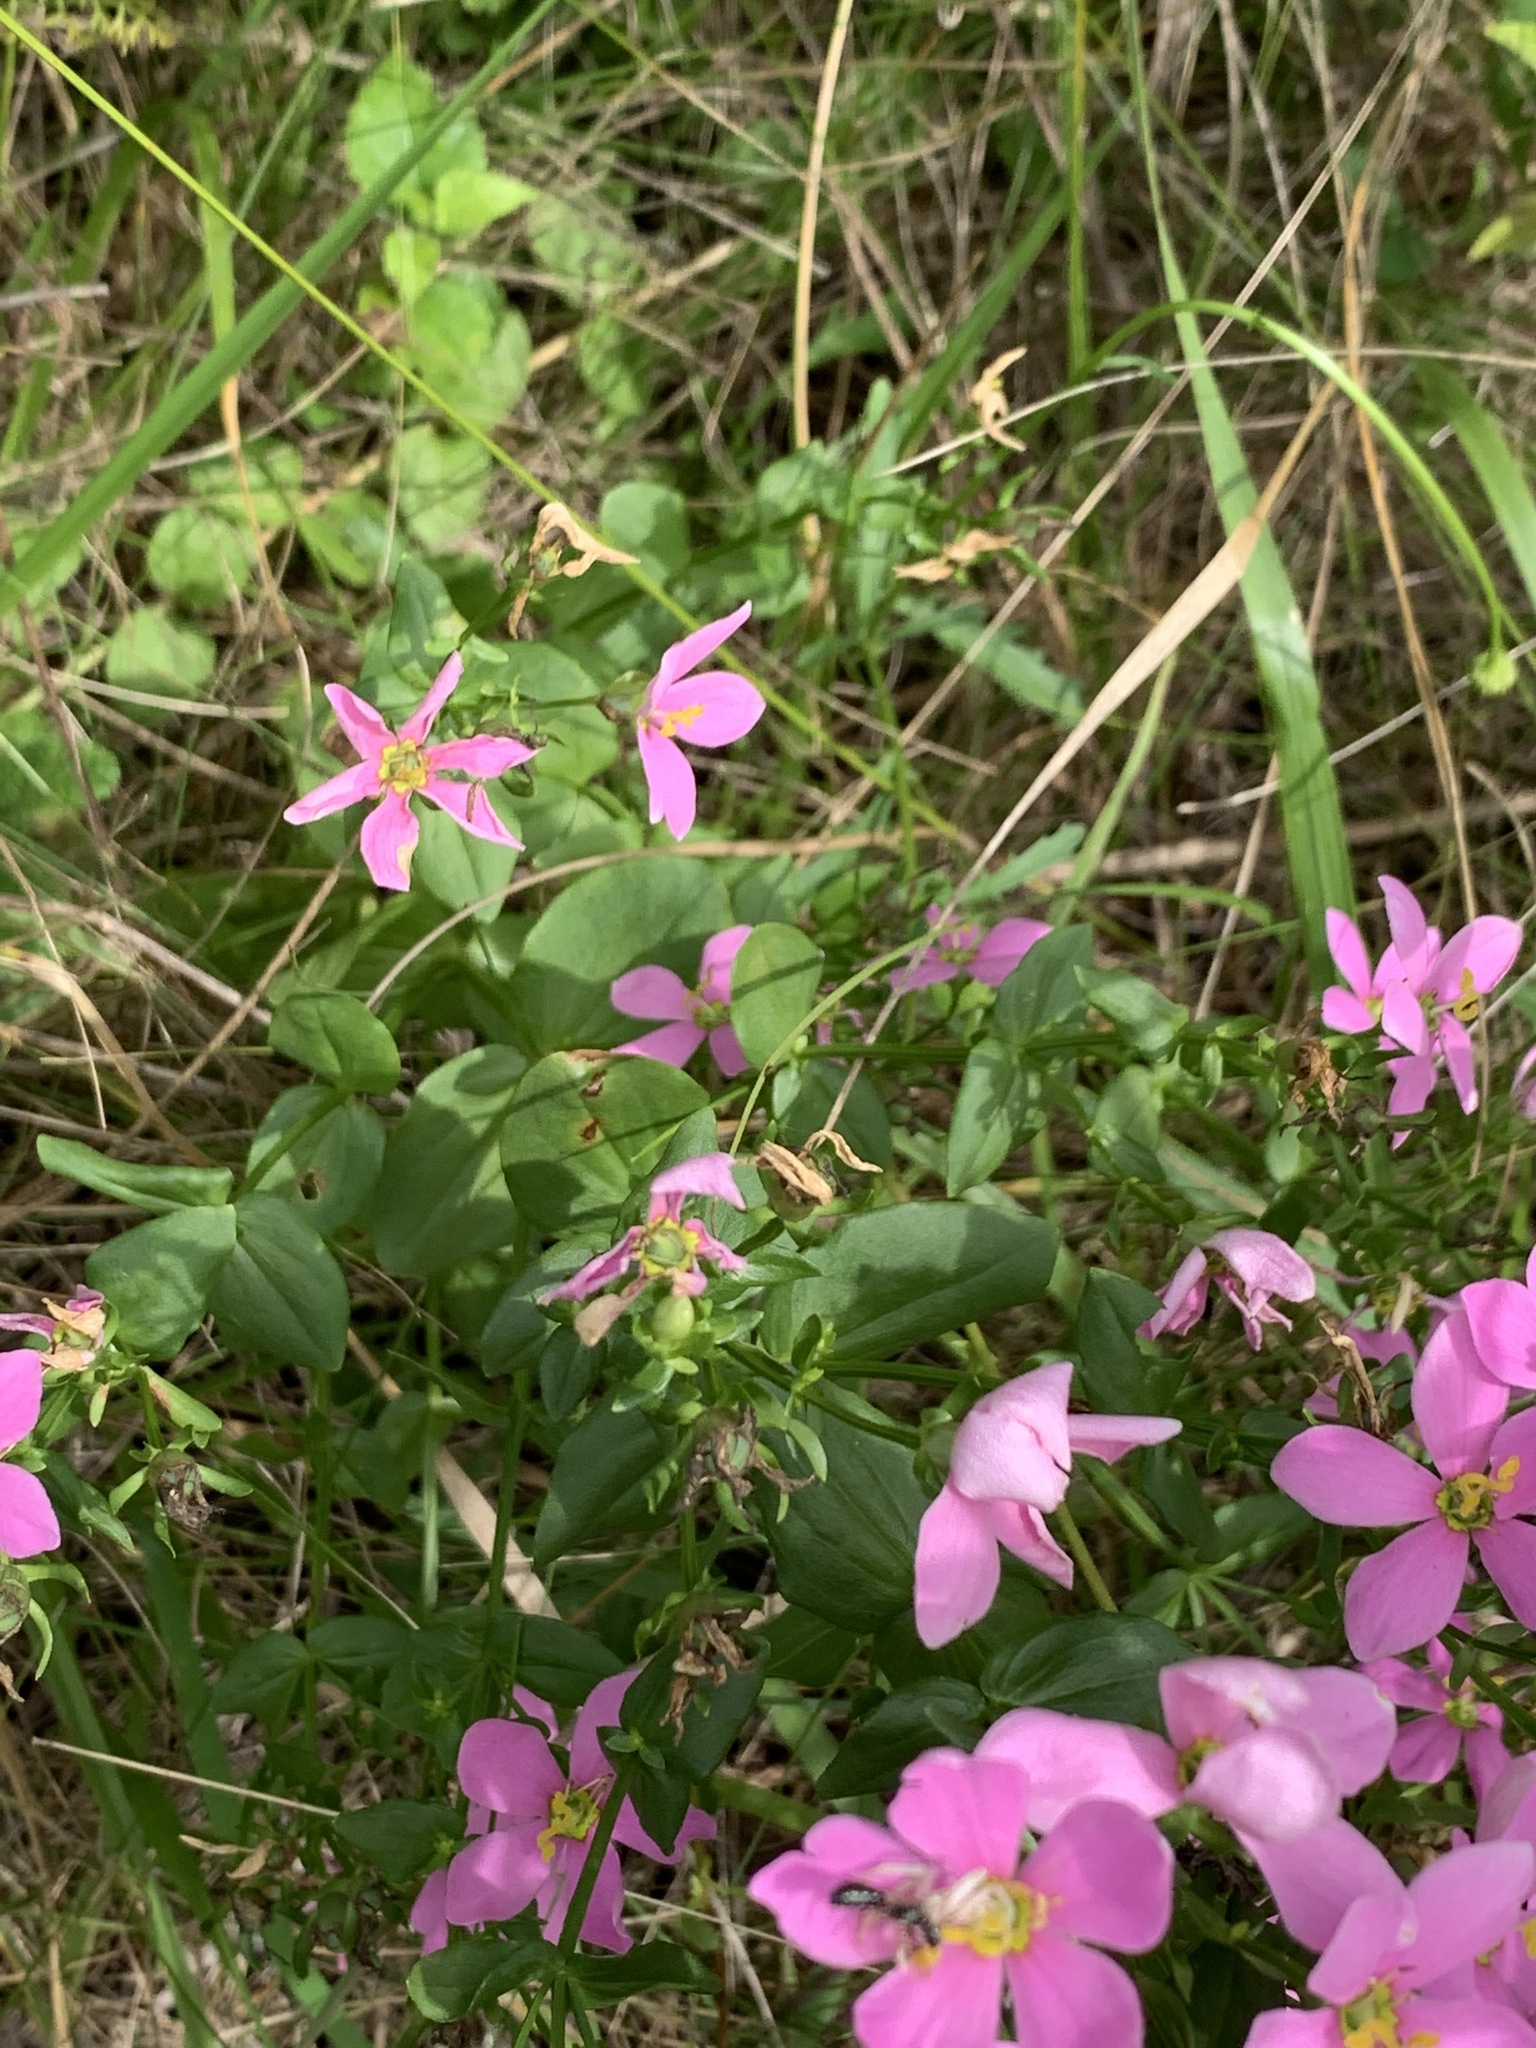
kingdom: Plantae
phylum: Tracheophyta
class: Magnoliopsida
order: Gentianales
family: Gentianaceae
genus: Sabatia
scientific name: Sabatia angularis
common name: Rose-pink
